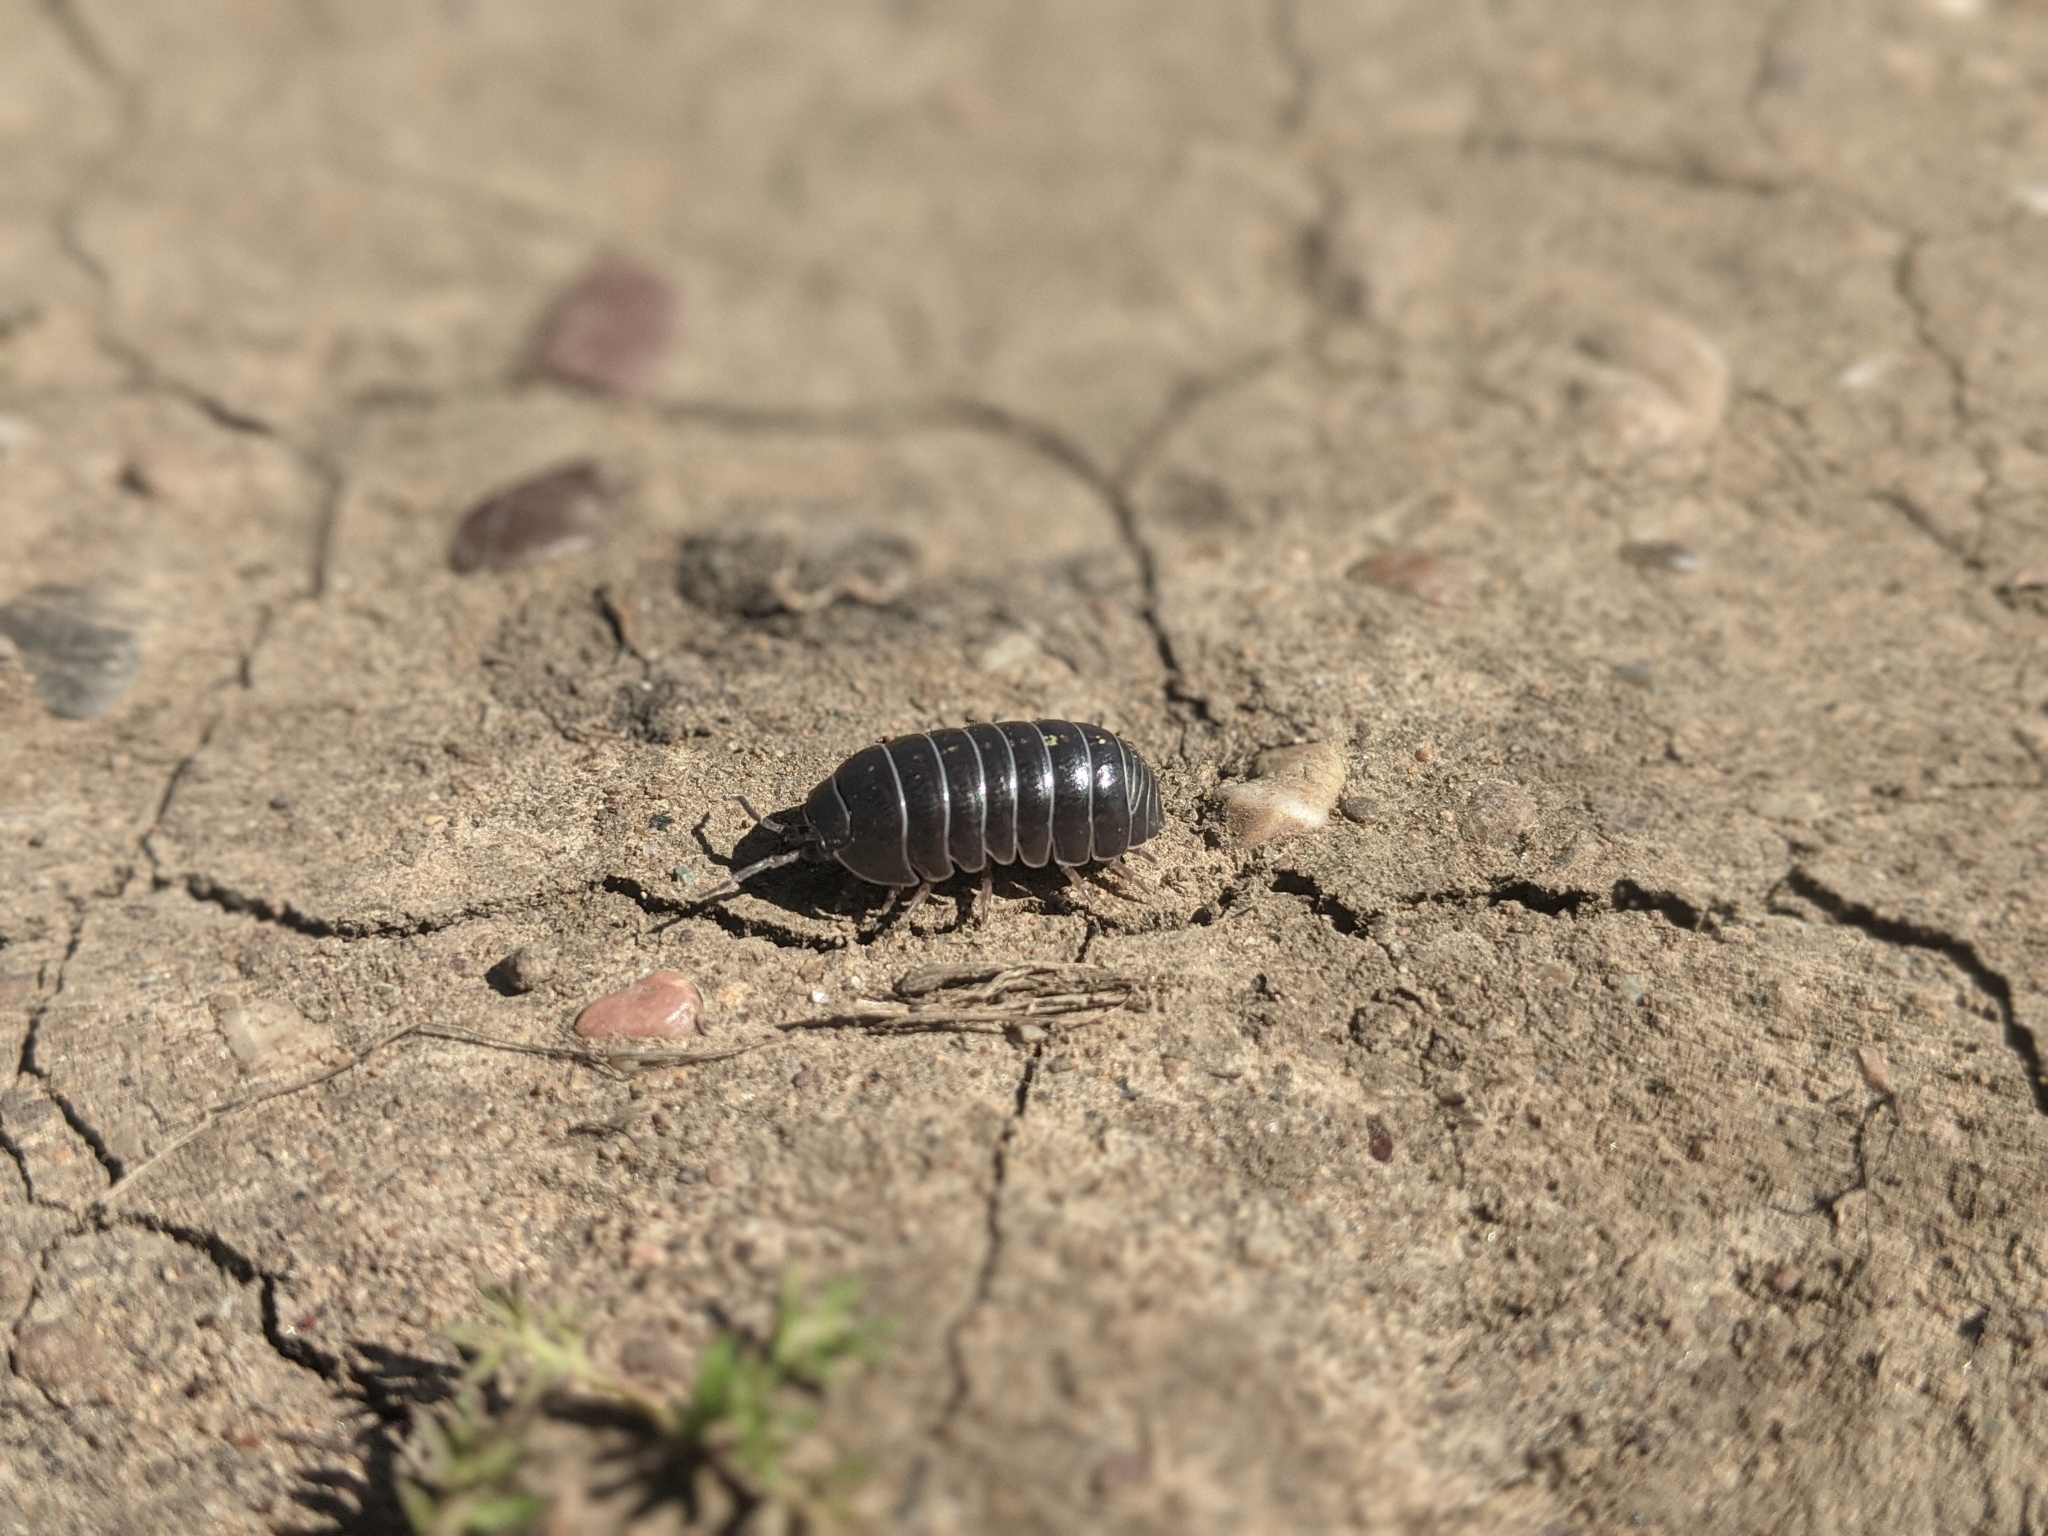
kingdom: Animalia
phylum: Arthropoda
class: Malacostraca
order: Isopoda
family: Armadillidiidae
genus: Armadillidium
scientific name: Armadillidium vulgare
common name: Common pill woodlouse
